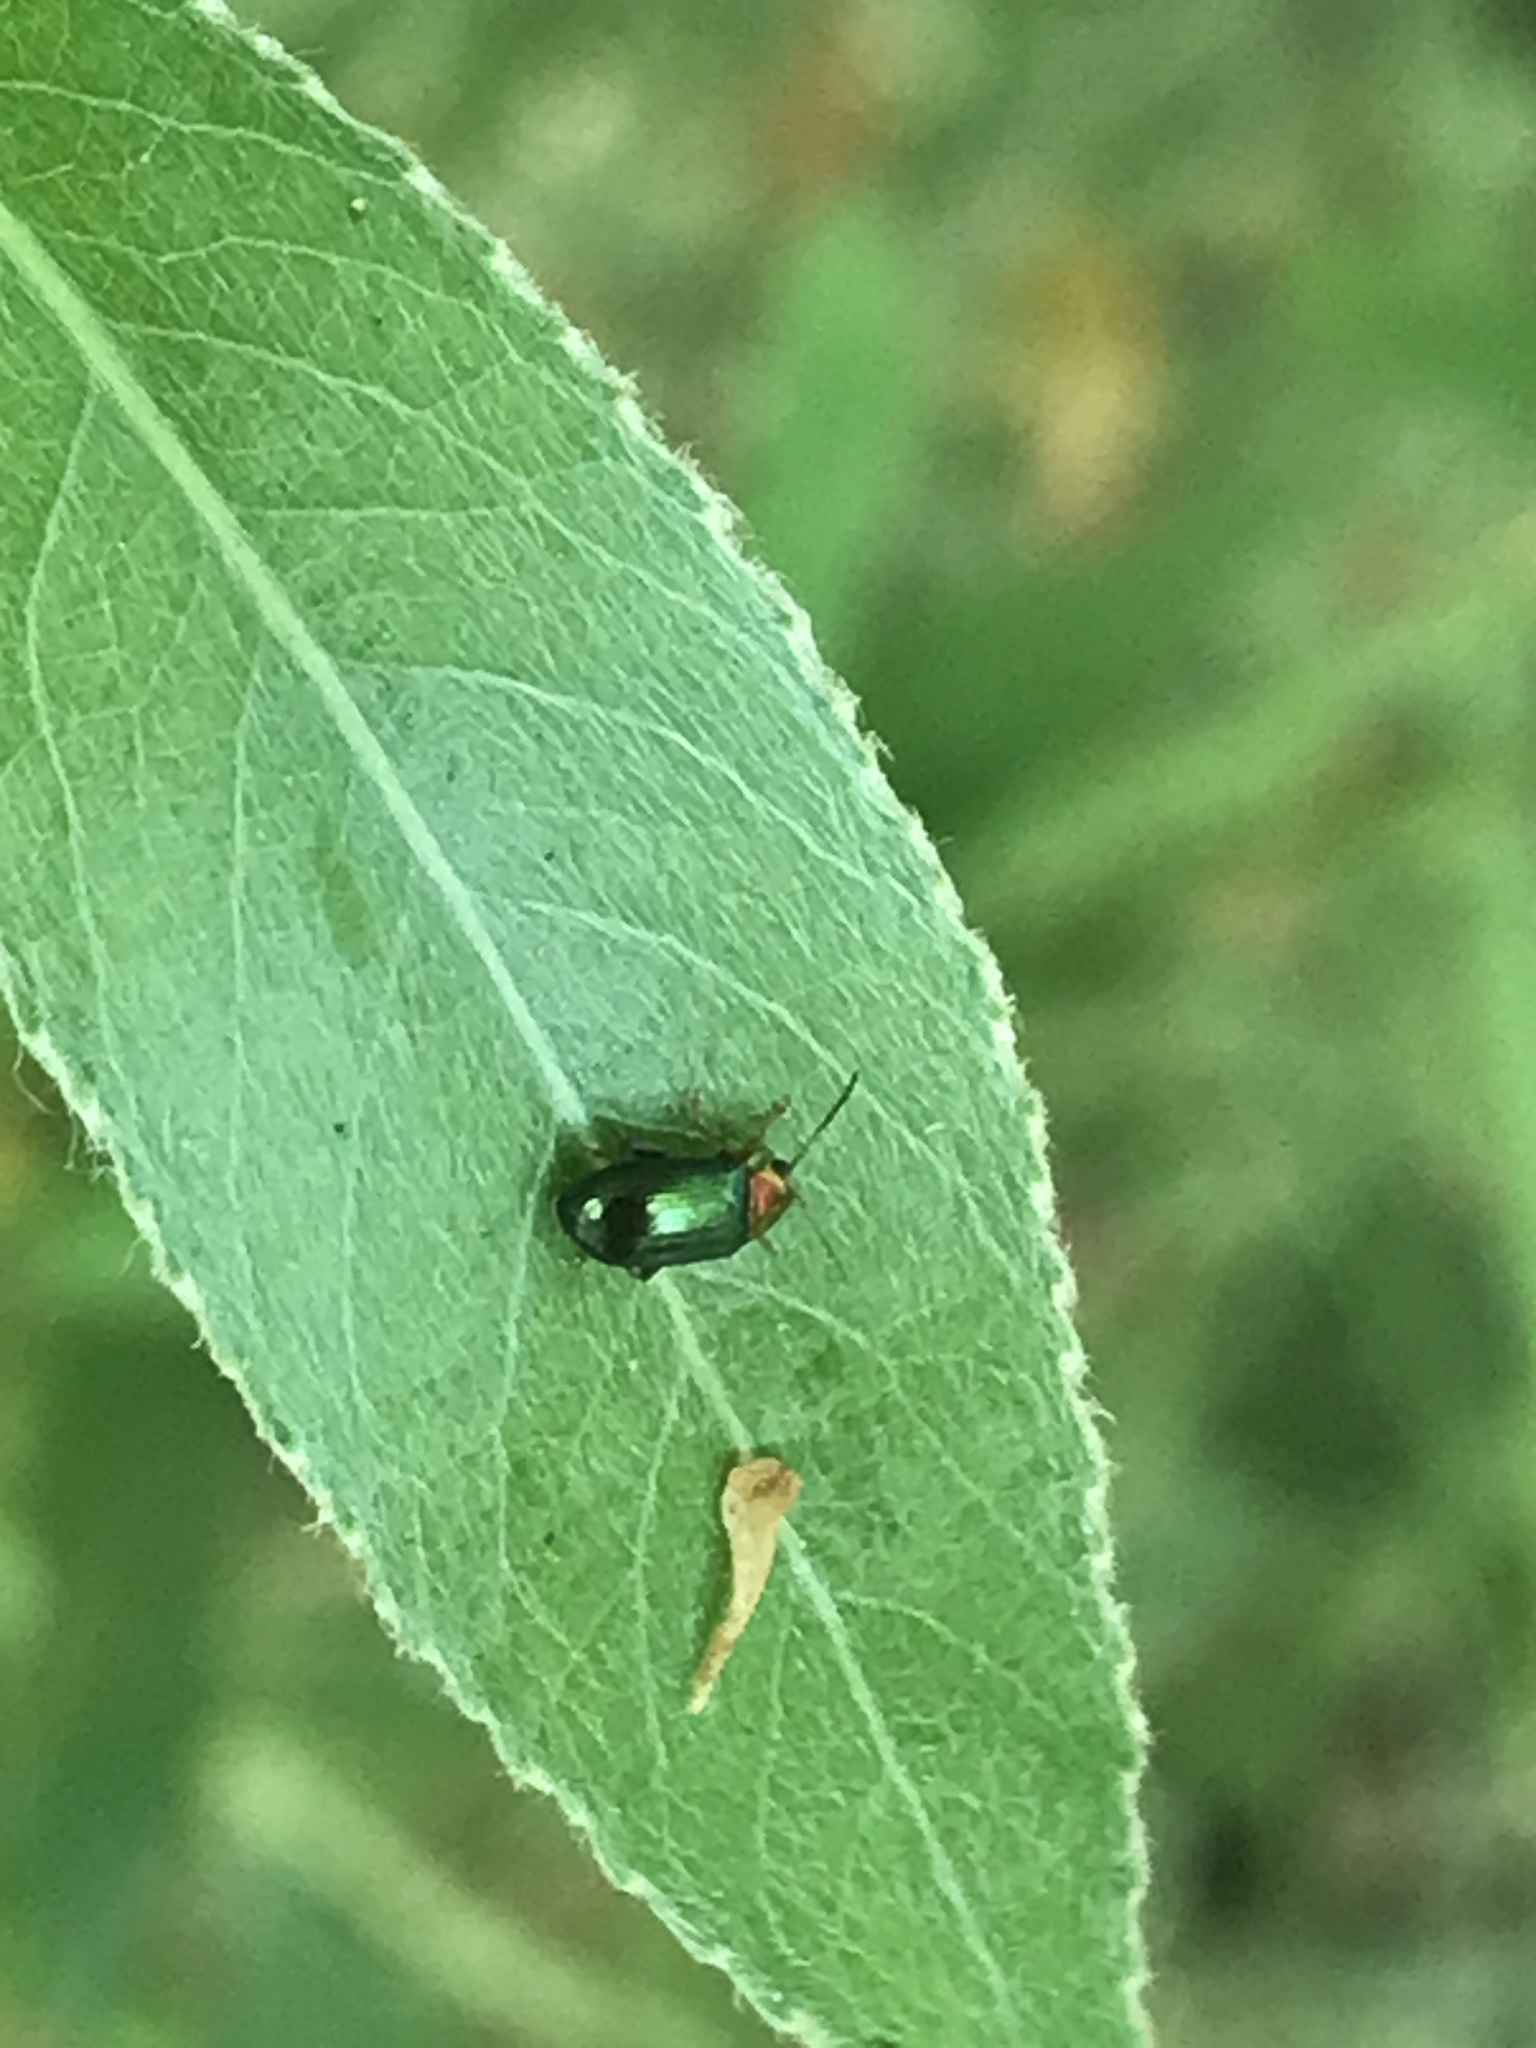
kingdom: Animalia
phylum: Arthropoda
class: Insecta
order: Coleoptera
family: Chrysomelidae
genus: Crepidodera
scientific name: Crepidodera aurata
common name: Willow flea beetle
